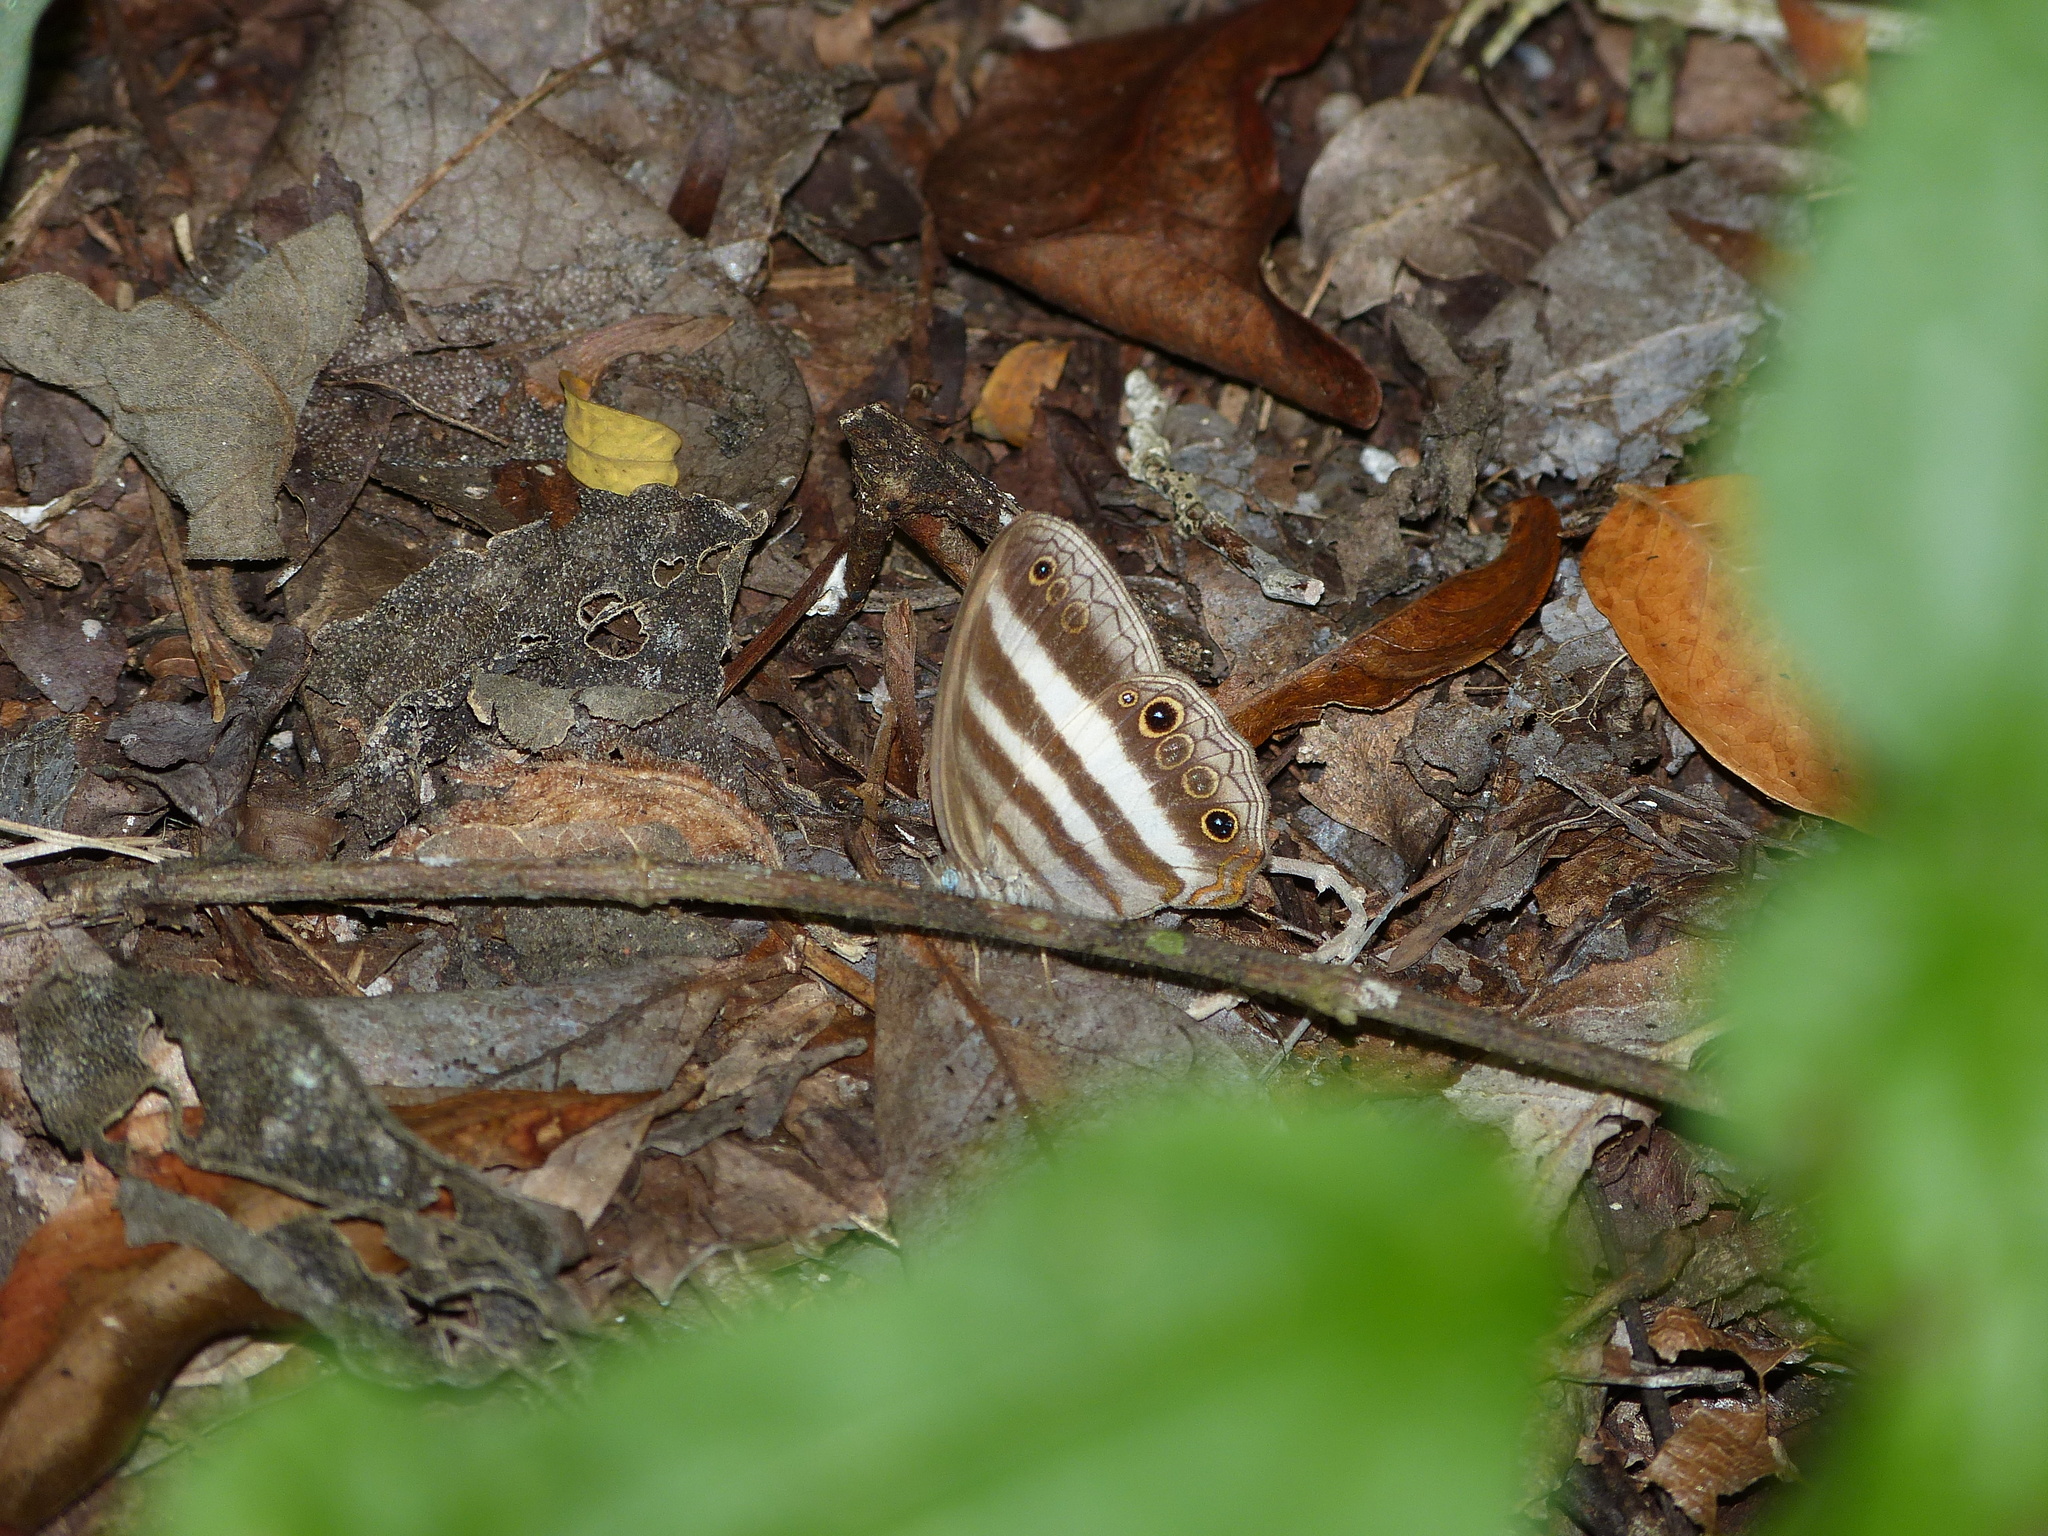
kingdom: Animalia
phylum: Arthropoda
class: Insecta
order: Lepidoptera
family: Nymphalidae
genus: Pareuptychia
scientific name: Pareuptychia hesione
